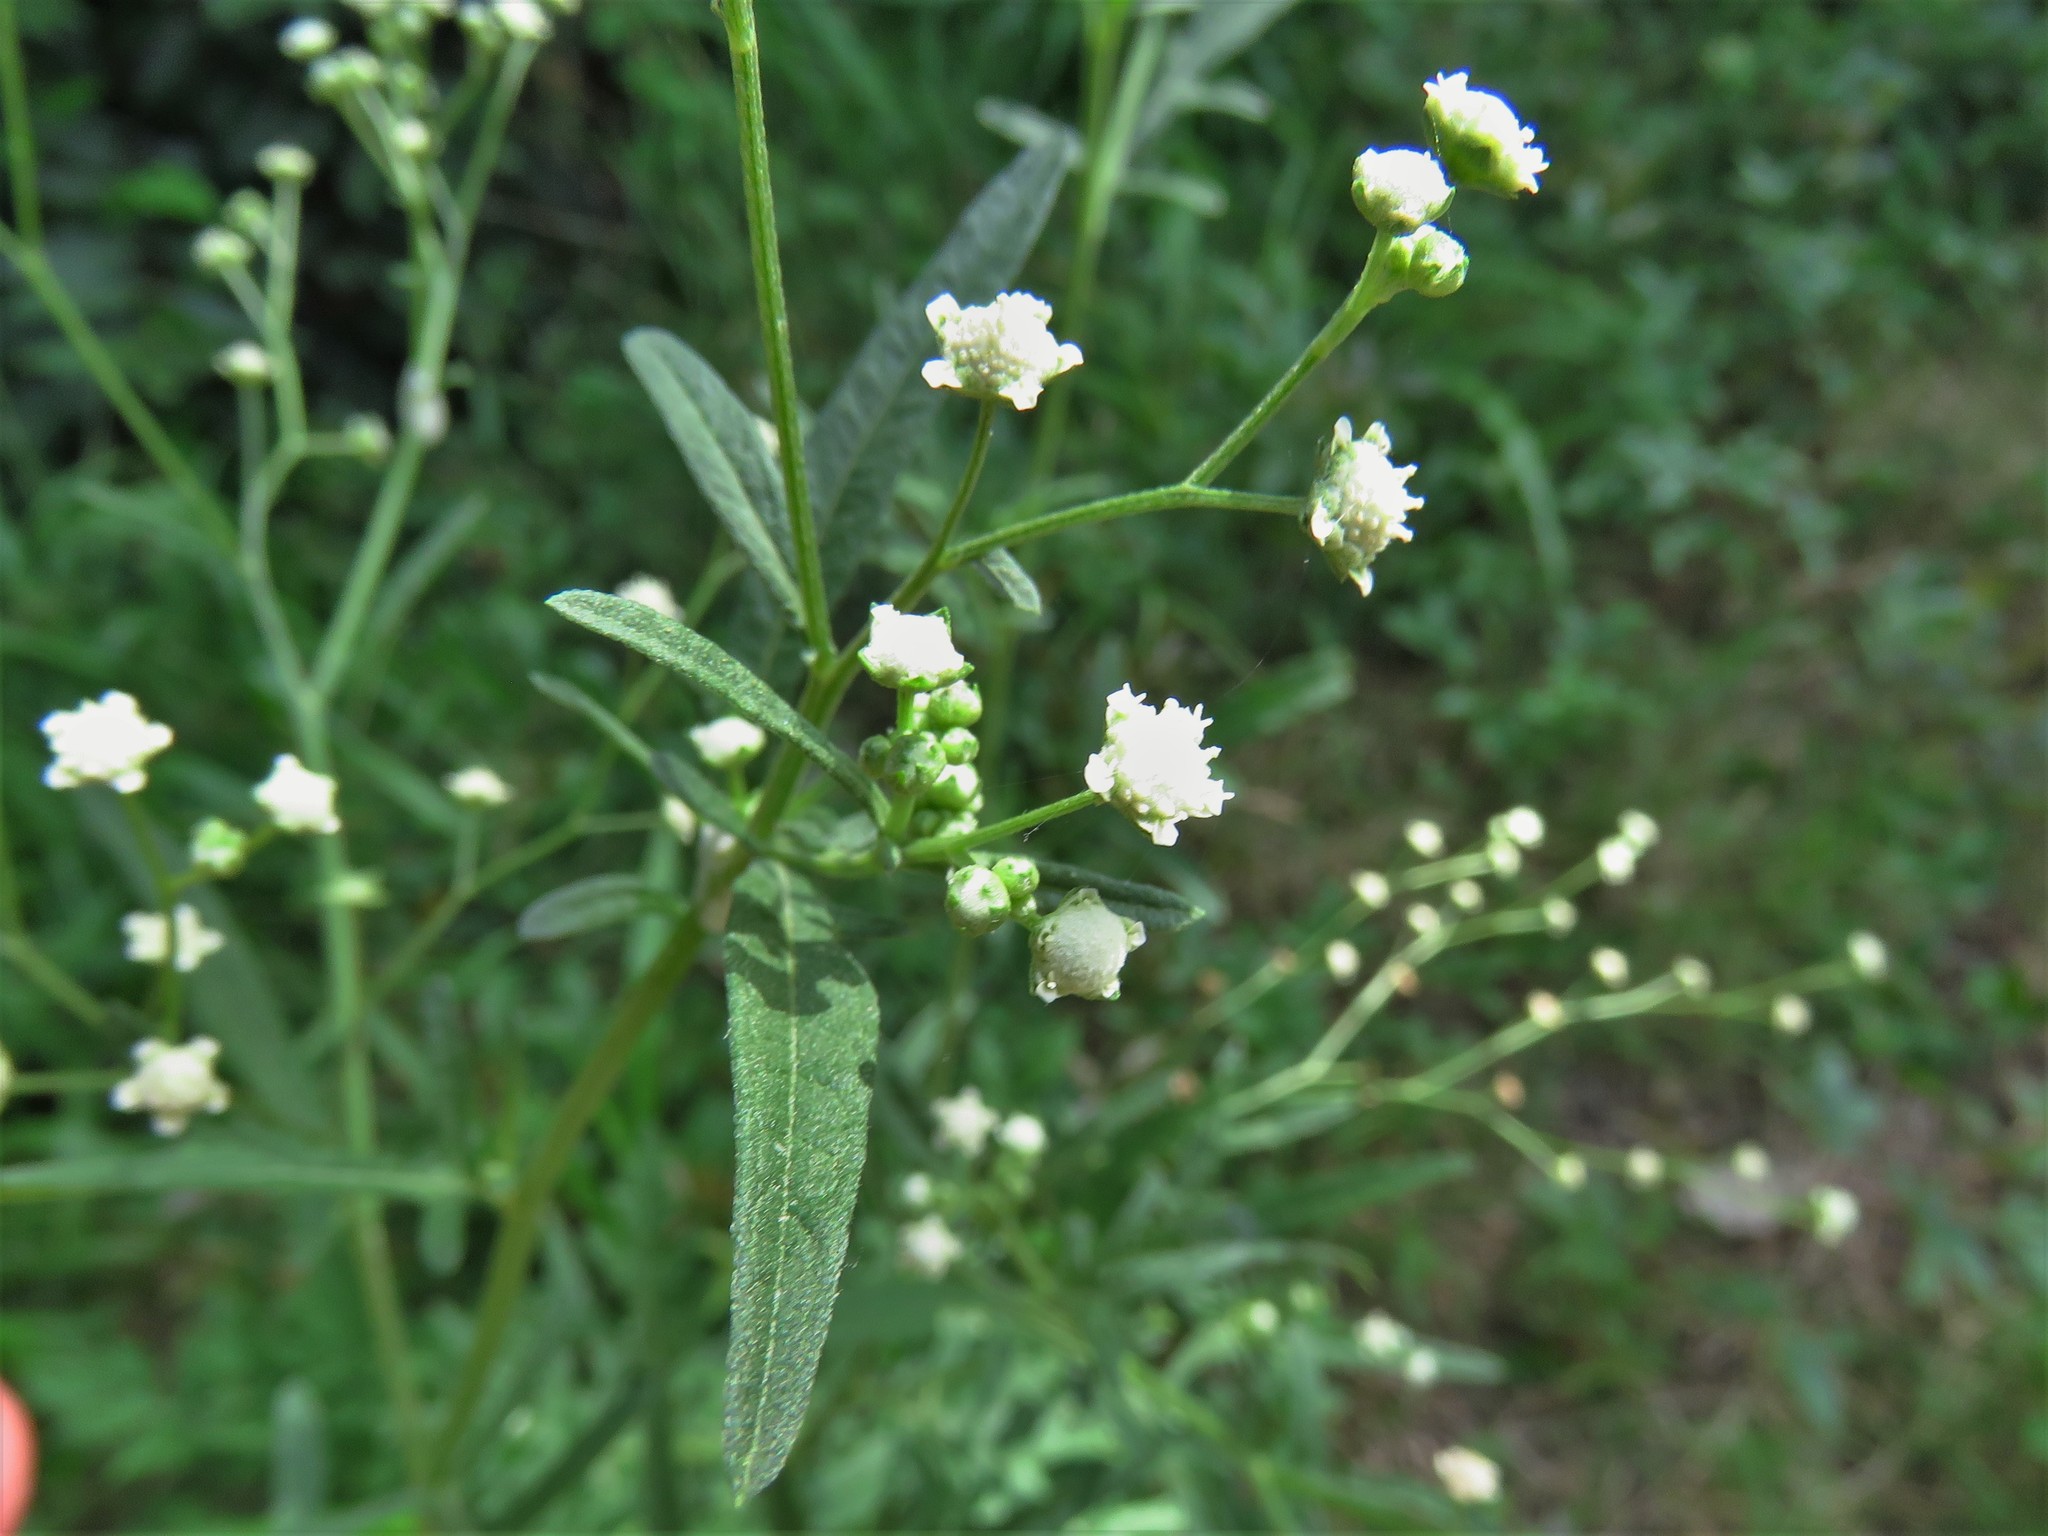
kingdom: Plantae
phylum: Tracheophyta
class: Magnoliopsida
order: Asterales
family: Asteraceae
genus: Parthenium
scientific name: Parthenium hysterophorus
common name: Santa maria feverfew
